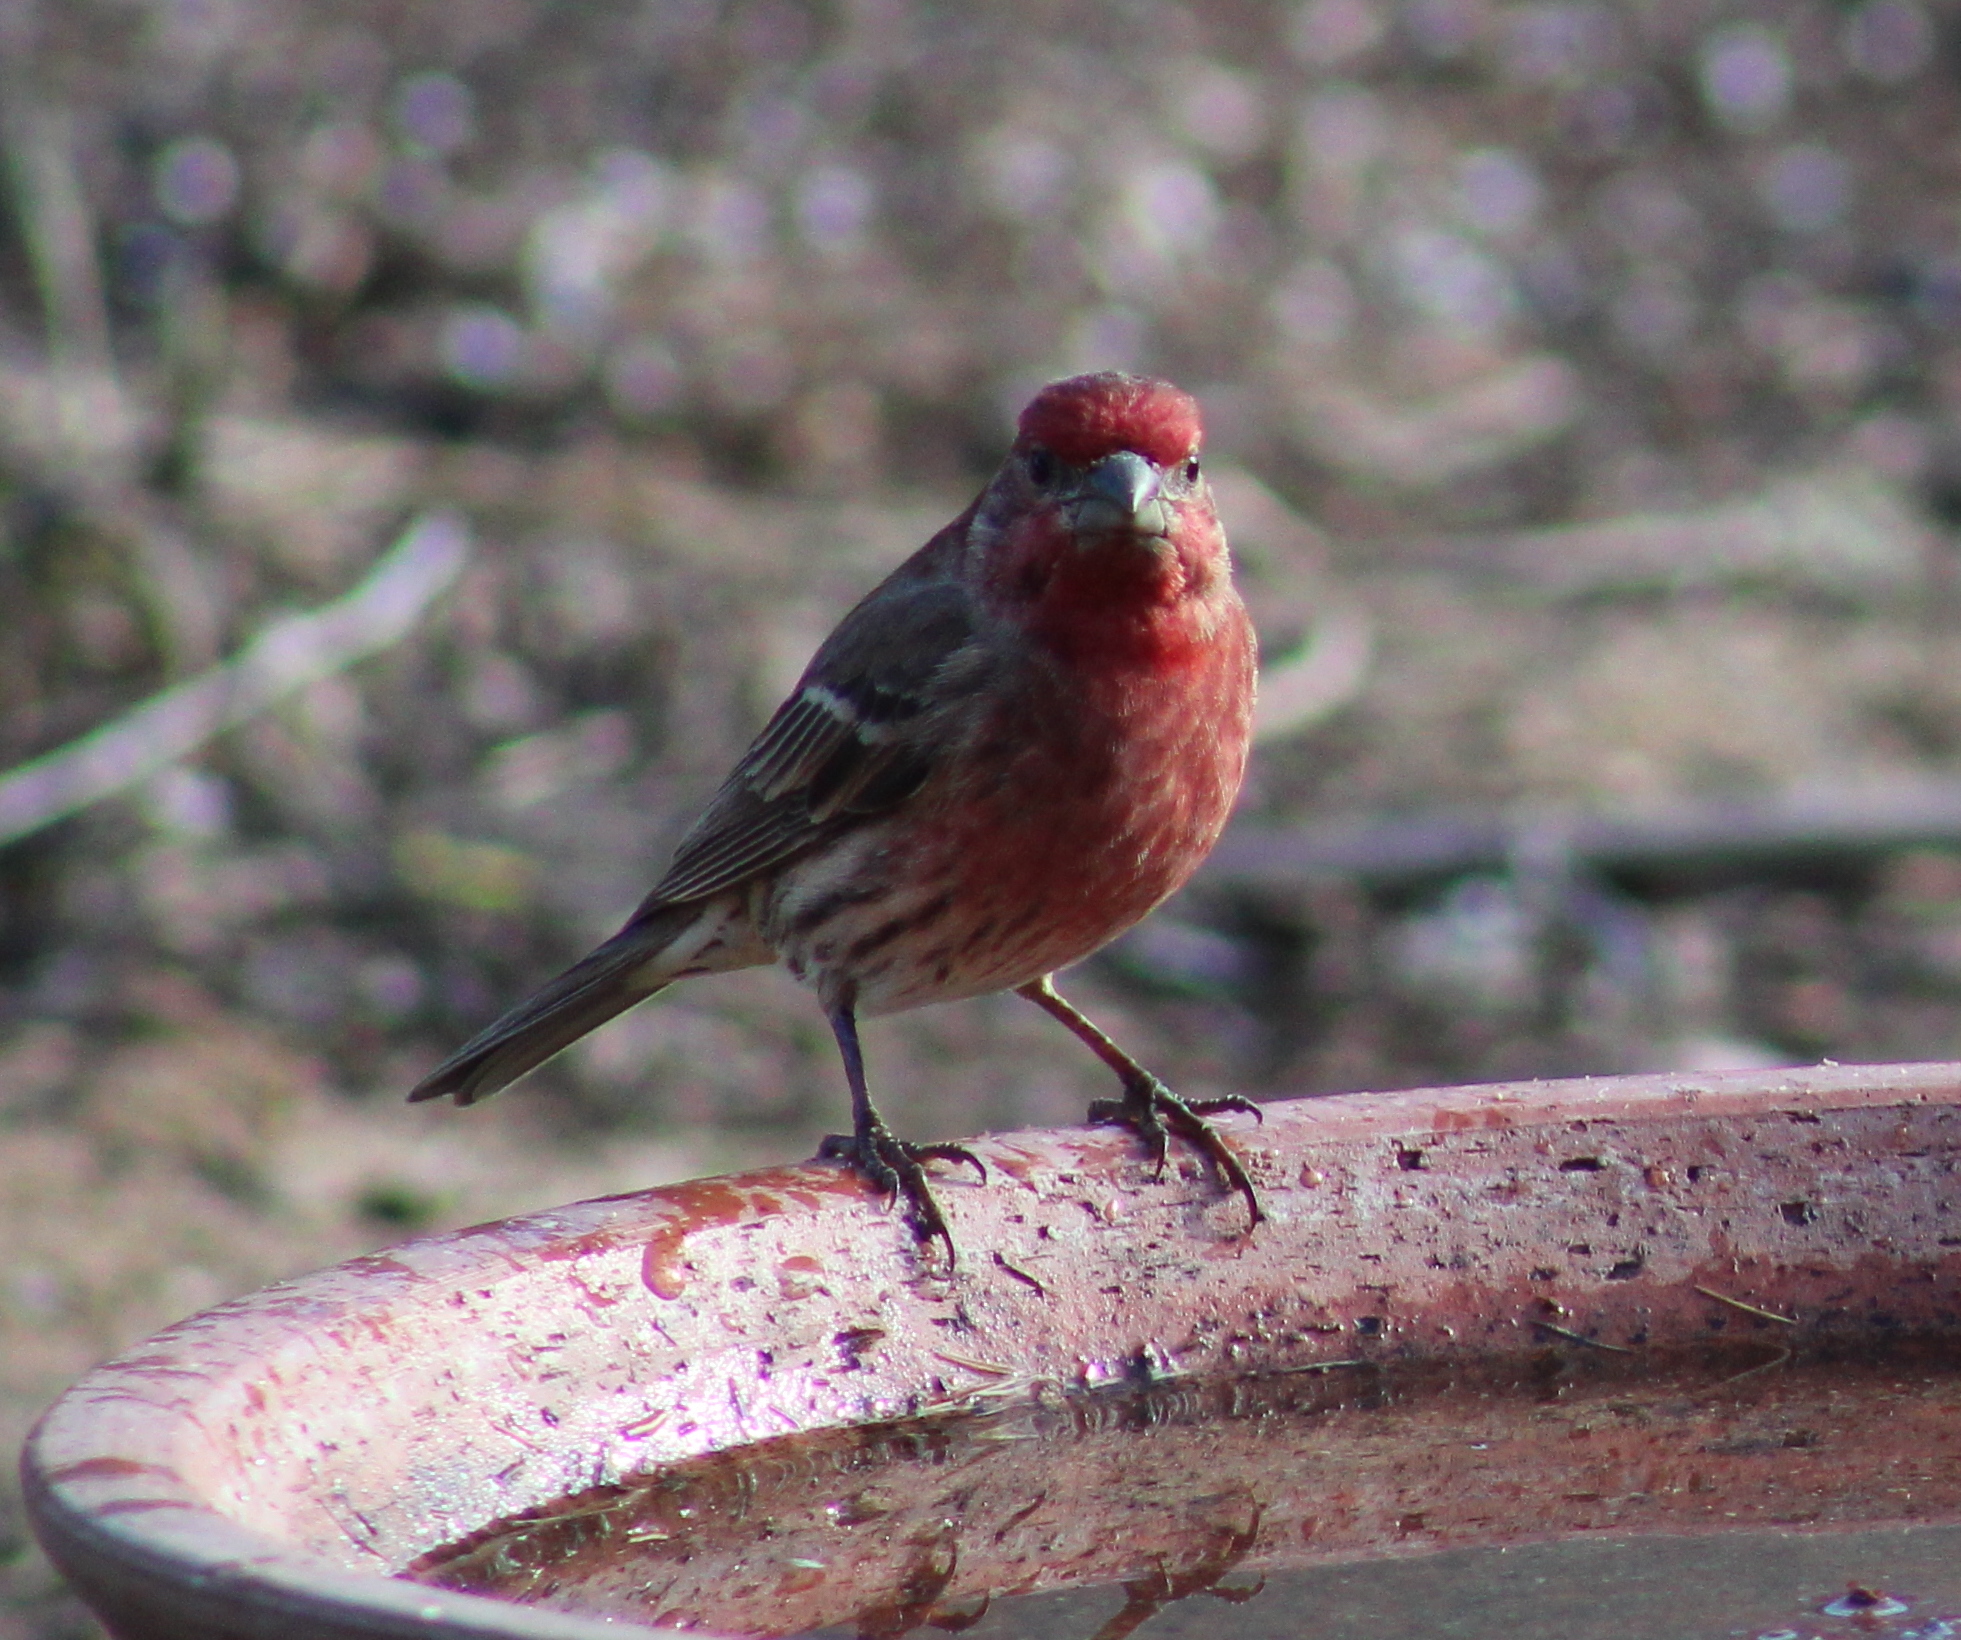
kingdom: Animalia
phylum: Chordata
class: Aves
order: Passeriformes
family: Fringillidae
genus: Haemorhous
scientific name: Haemorhous mexicanus
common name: House finch
